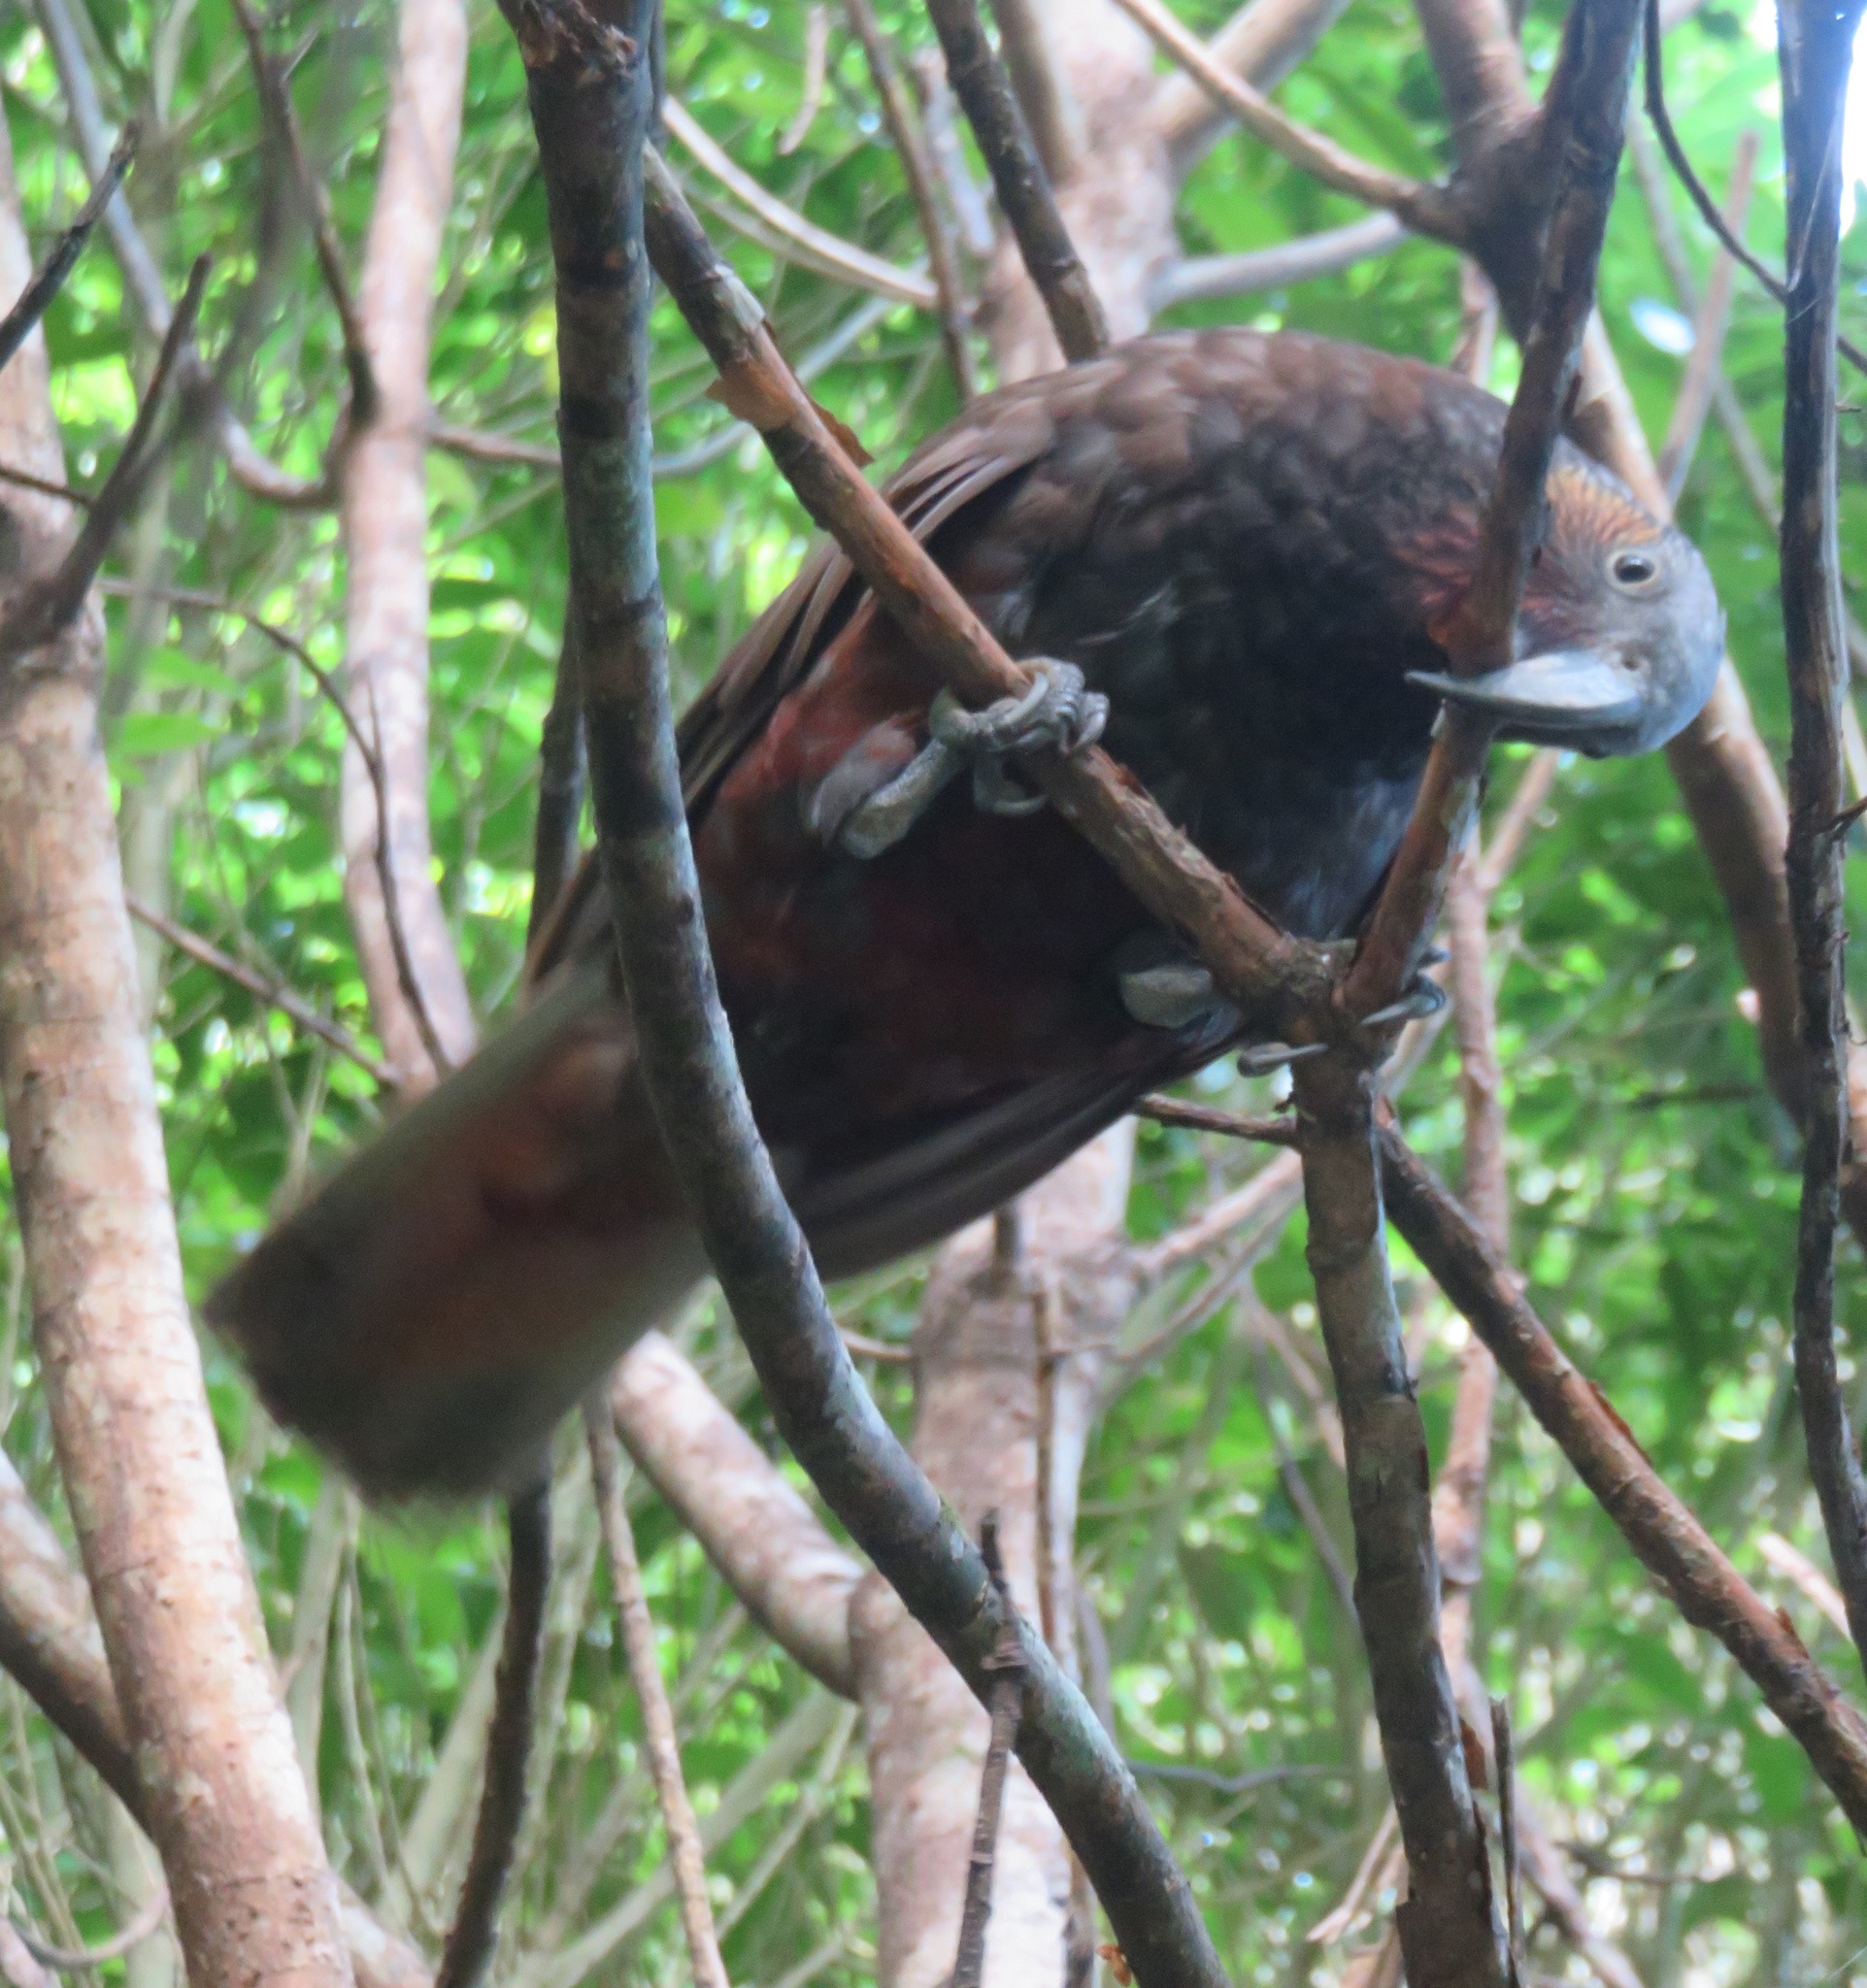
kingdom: Animalia
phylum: Chordata
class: Aves
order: Psittaciformes
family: Psittacidae
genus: Nestor
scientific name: Nestor meridionalis
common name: New zealand kaka
